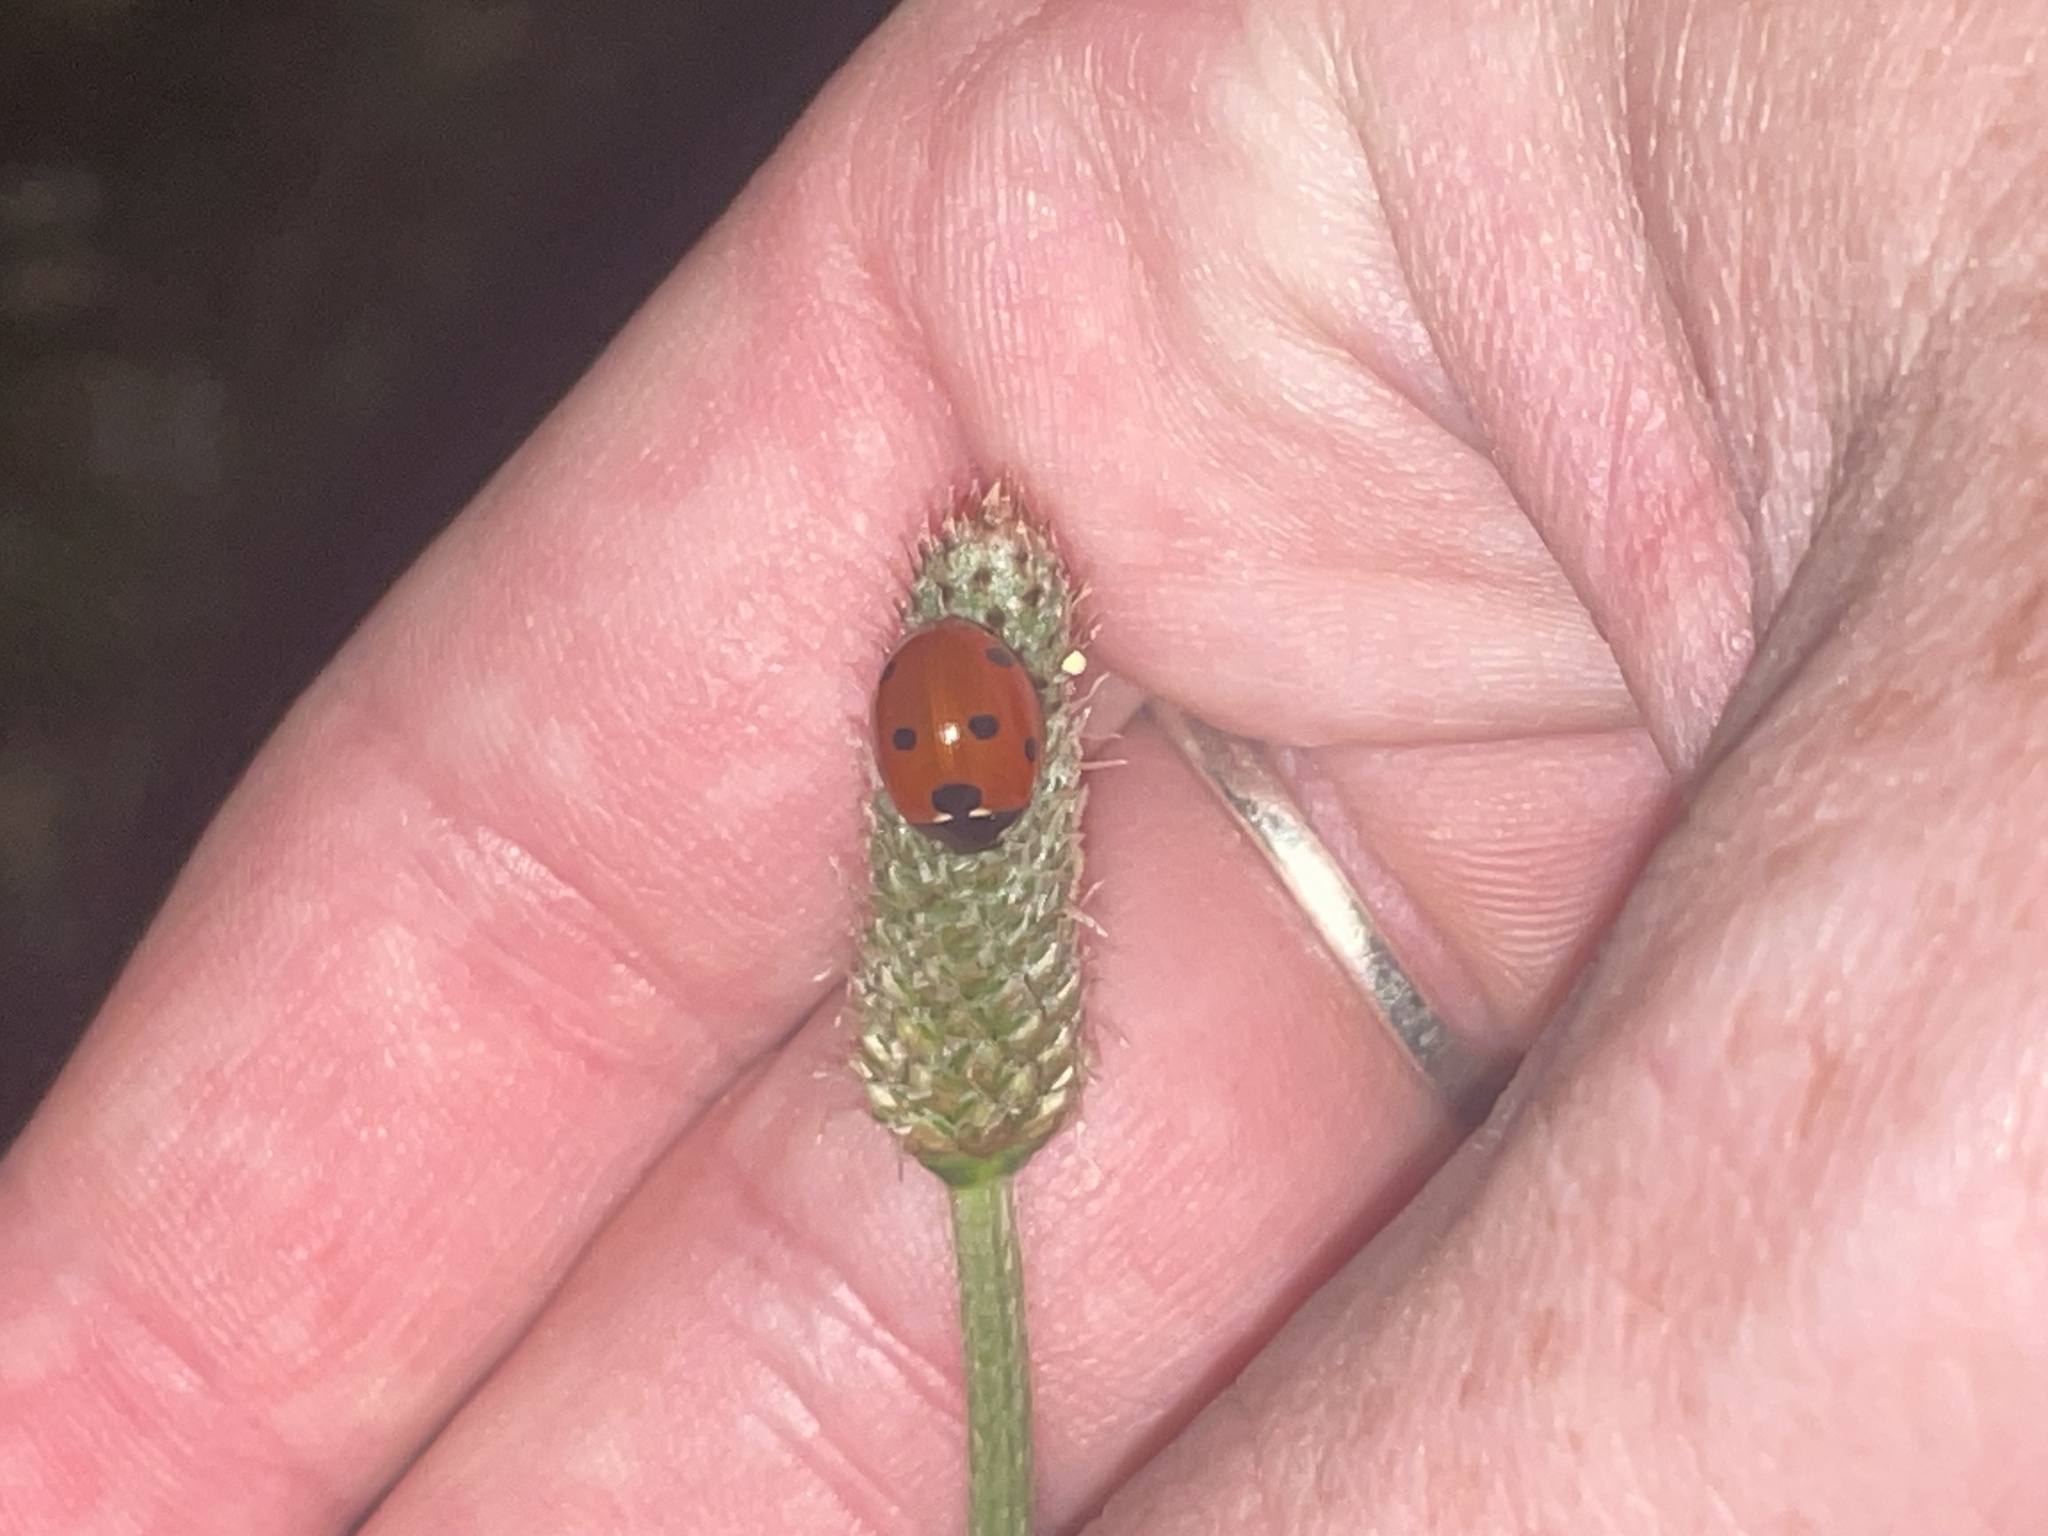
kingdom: Animalia
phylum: Arthropoda
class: Insecta
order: Coleoptera
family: Coccinellidae
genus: Coccinella
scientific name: Coccinella septempunctata
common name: Sevenspotted lady beetle
